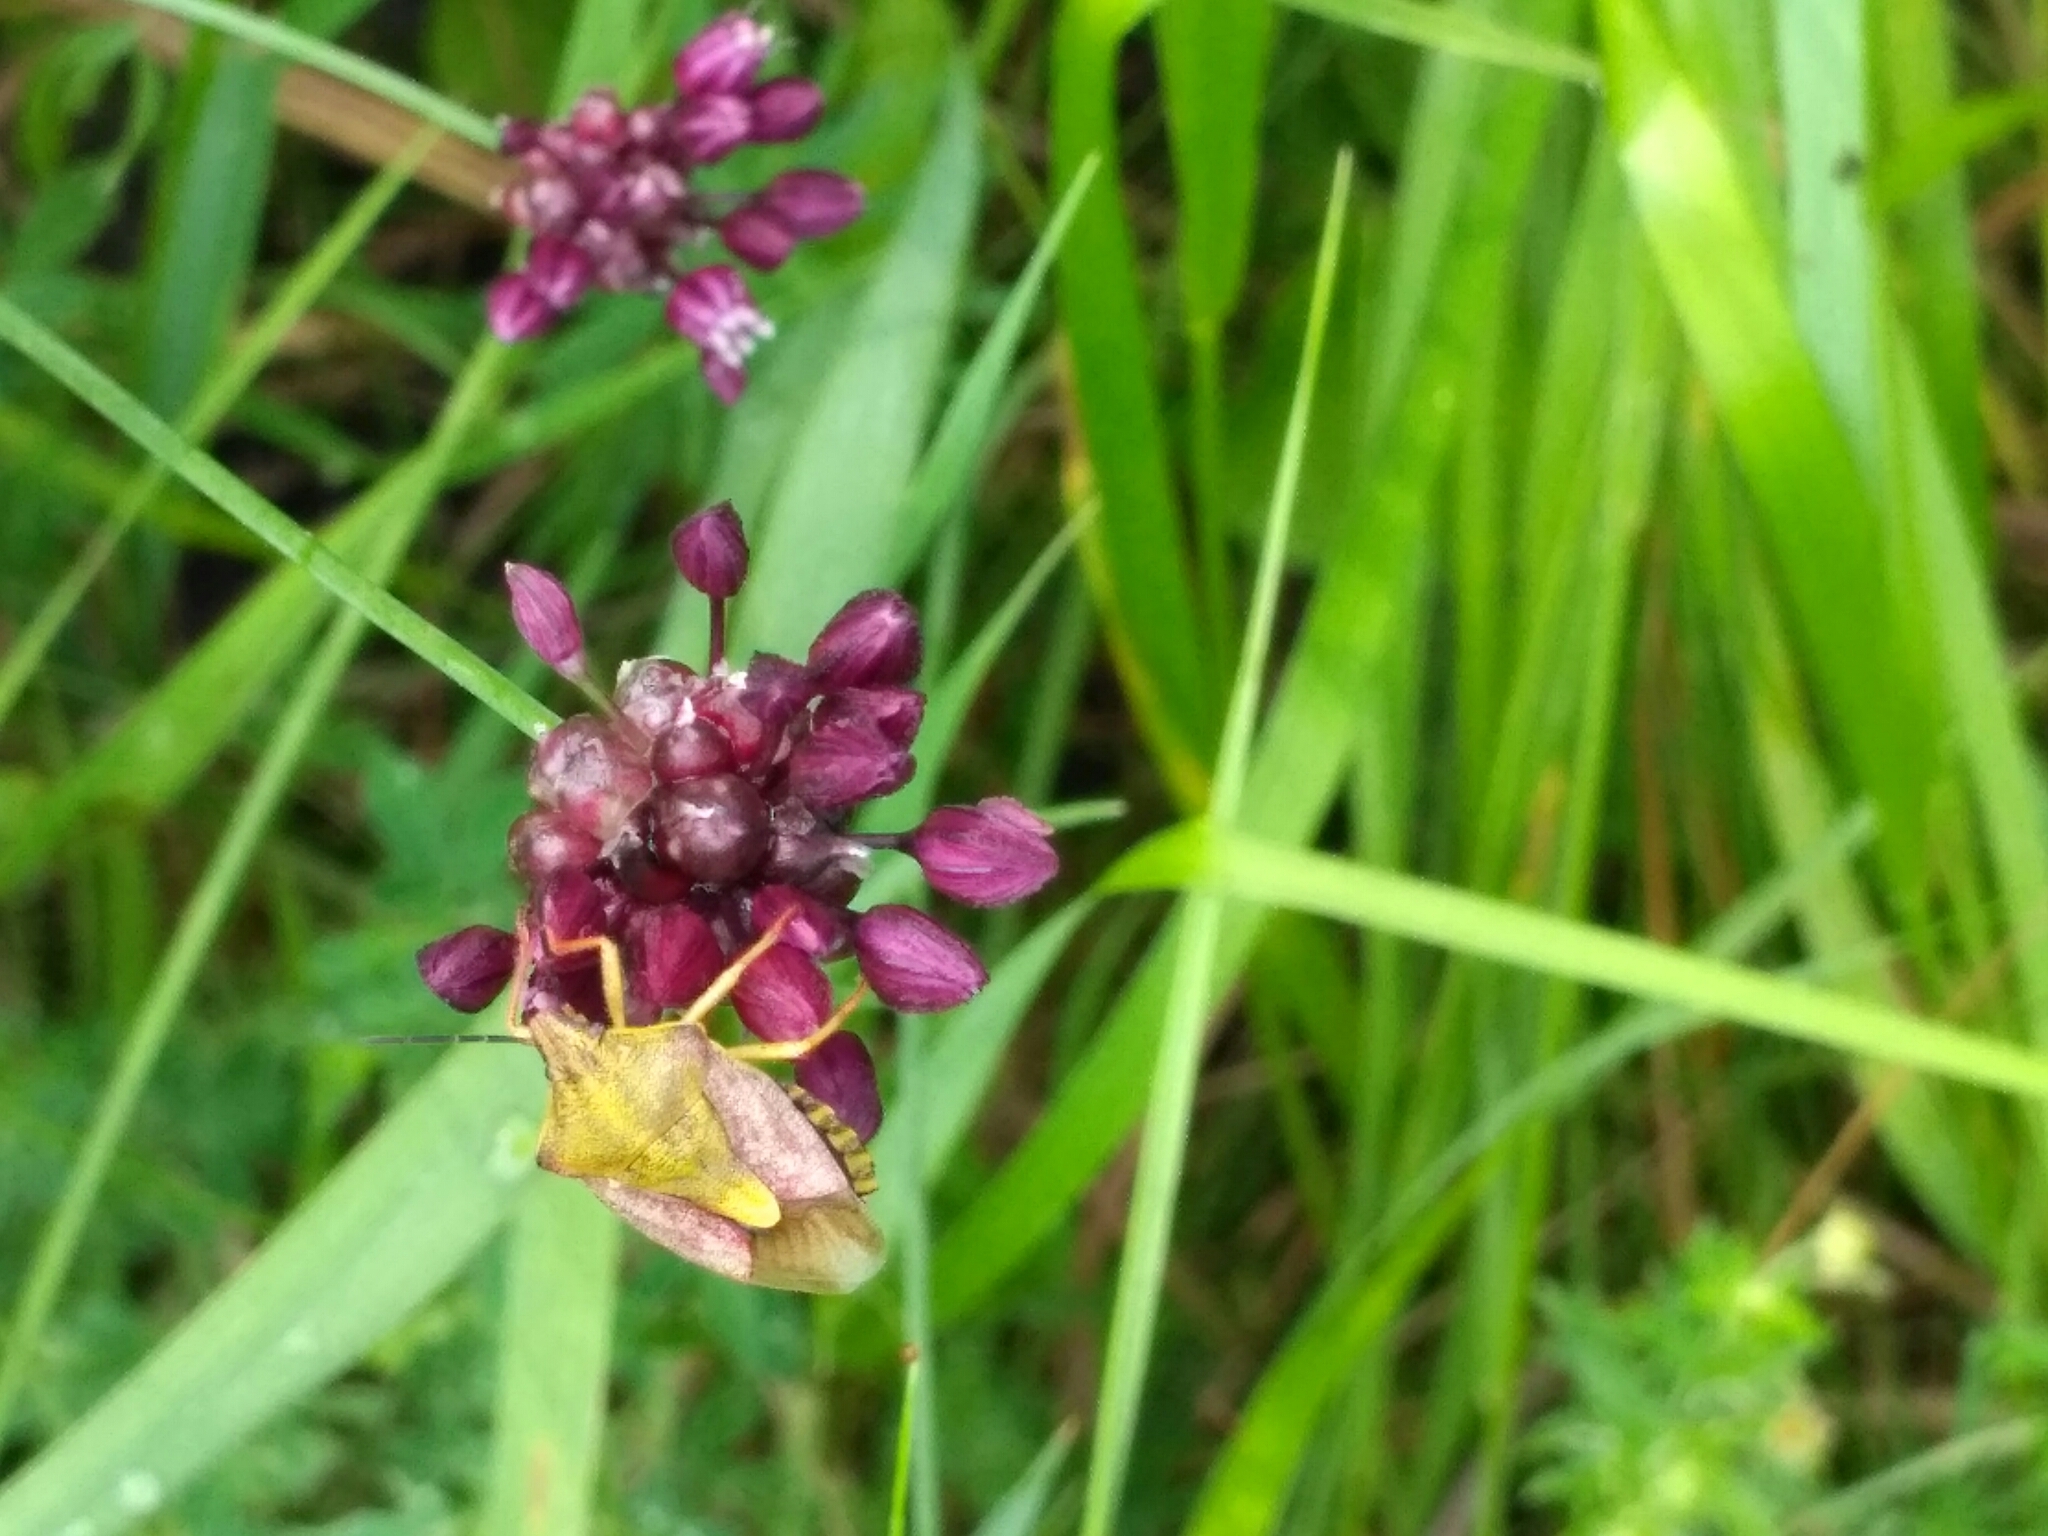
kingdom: Animalia
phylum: Arthropoda
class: Insecta
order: Hemiptera
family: Pentatomidae
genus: Carpocoris
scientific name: Carpocoris purpureipennis
